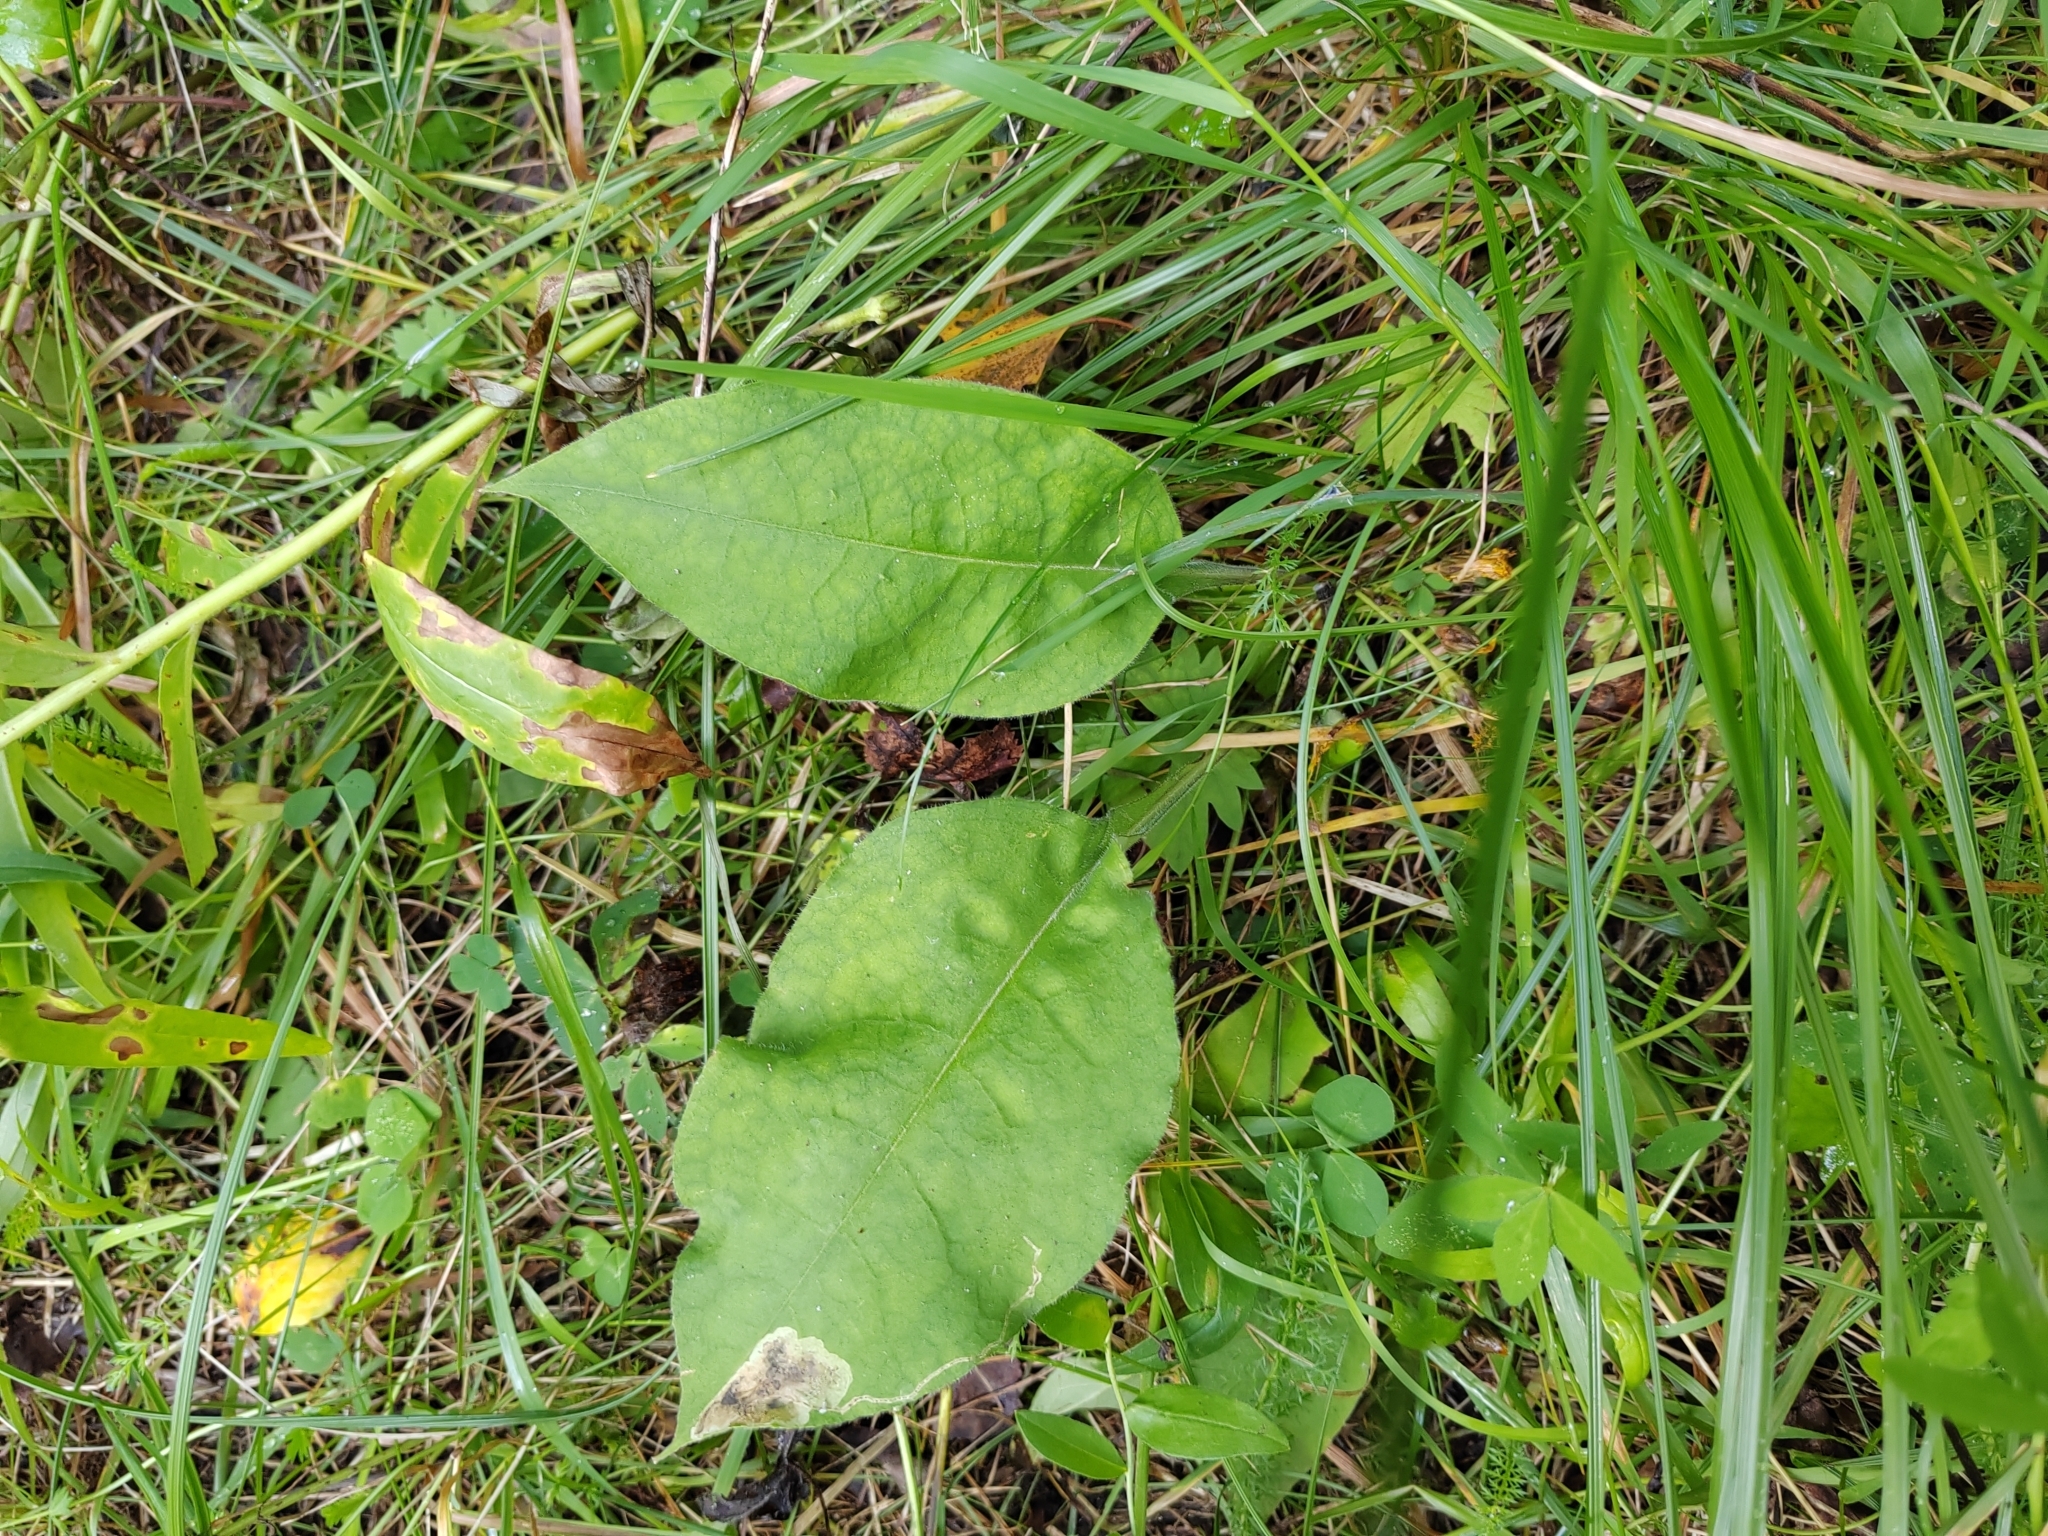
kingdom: Plantae
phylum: Tracheophyta
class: Magnoliopsida
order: Boraginales
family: Boraginaceae
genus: Pulmonaria
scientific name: Pulmonaria mollis
